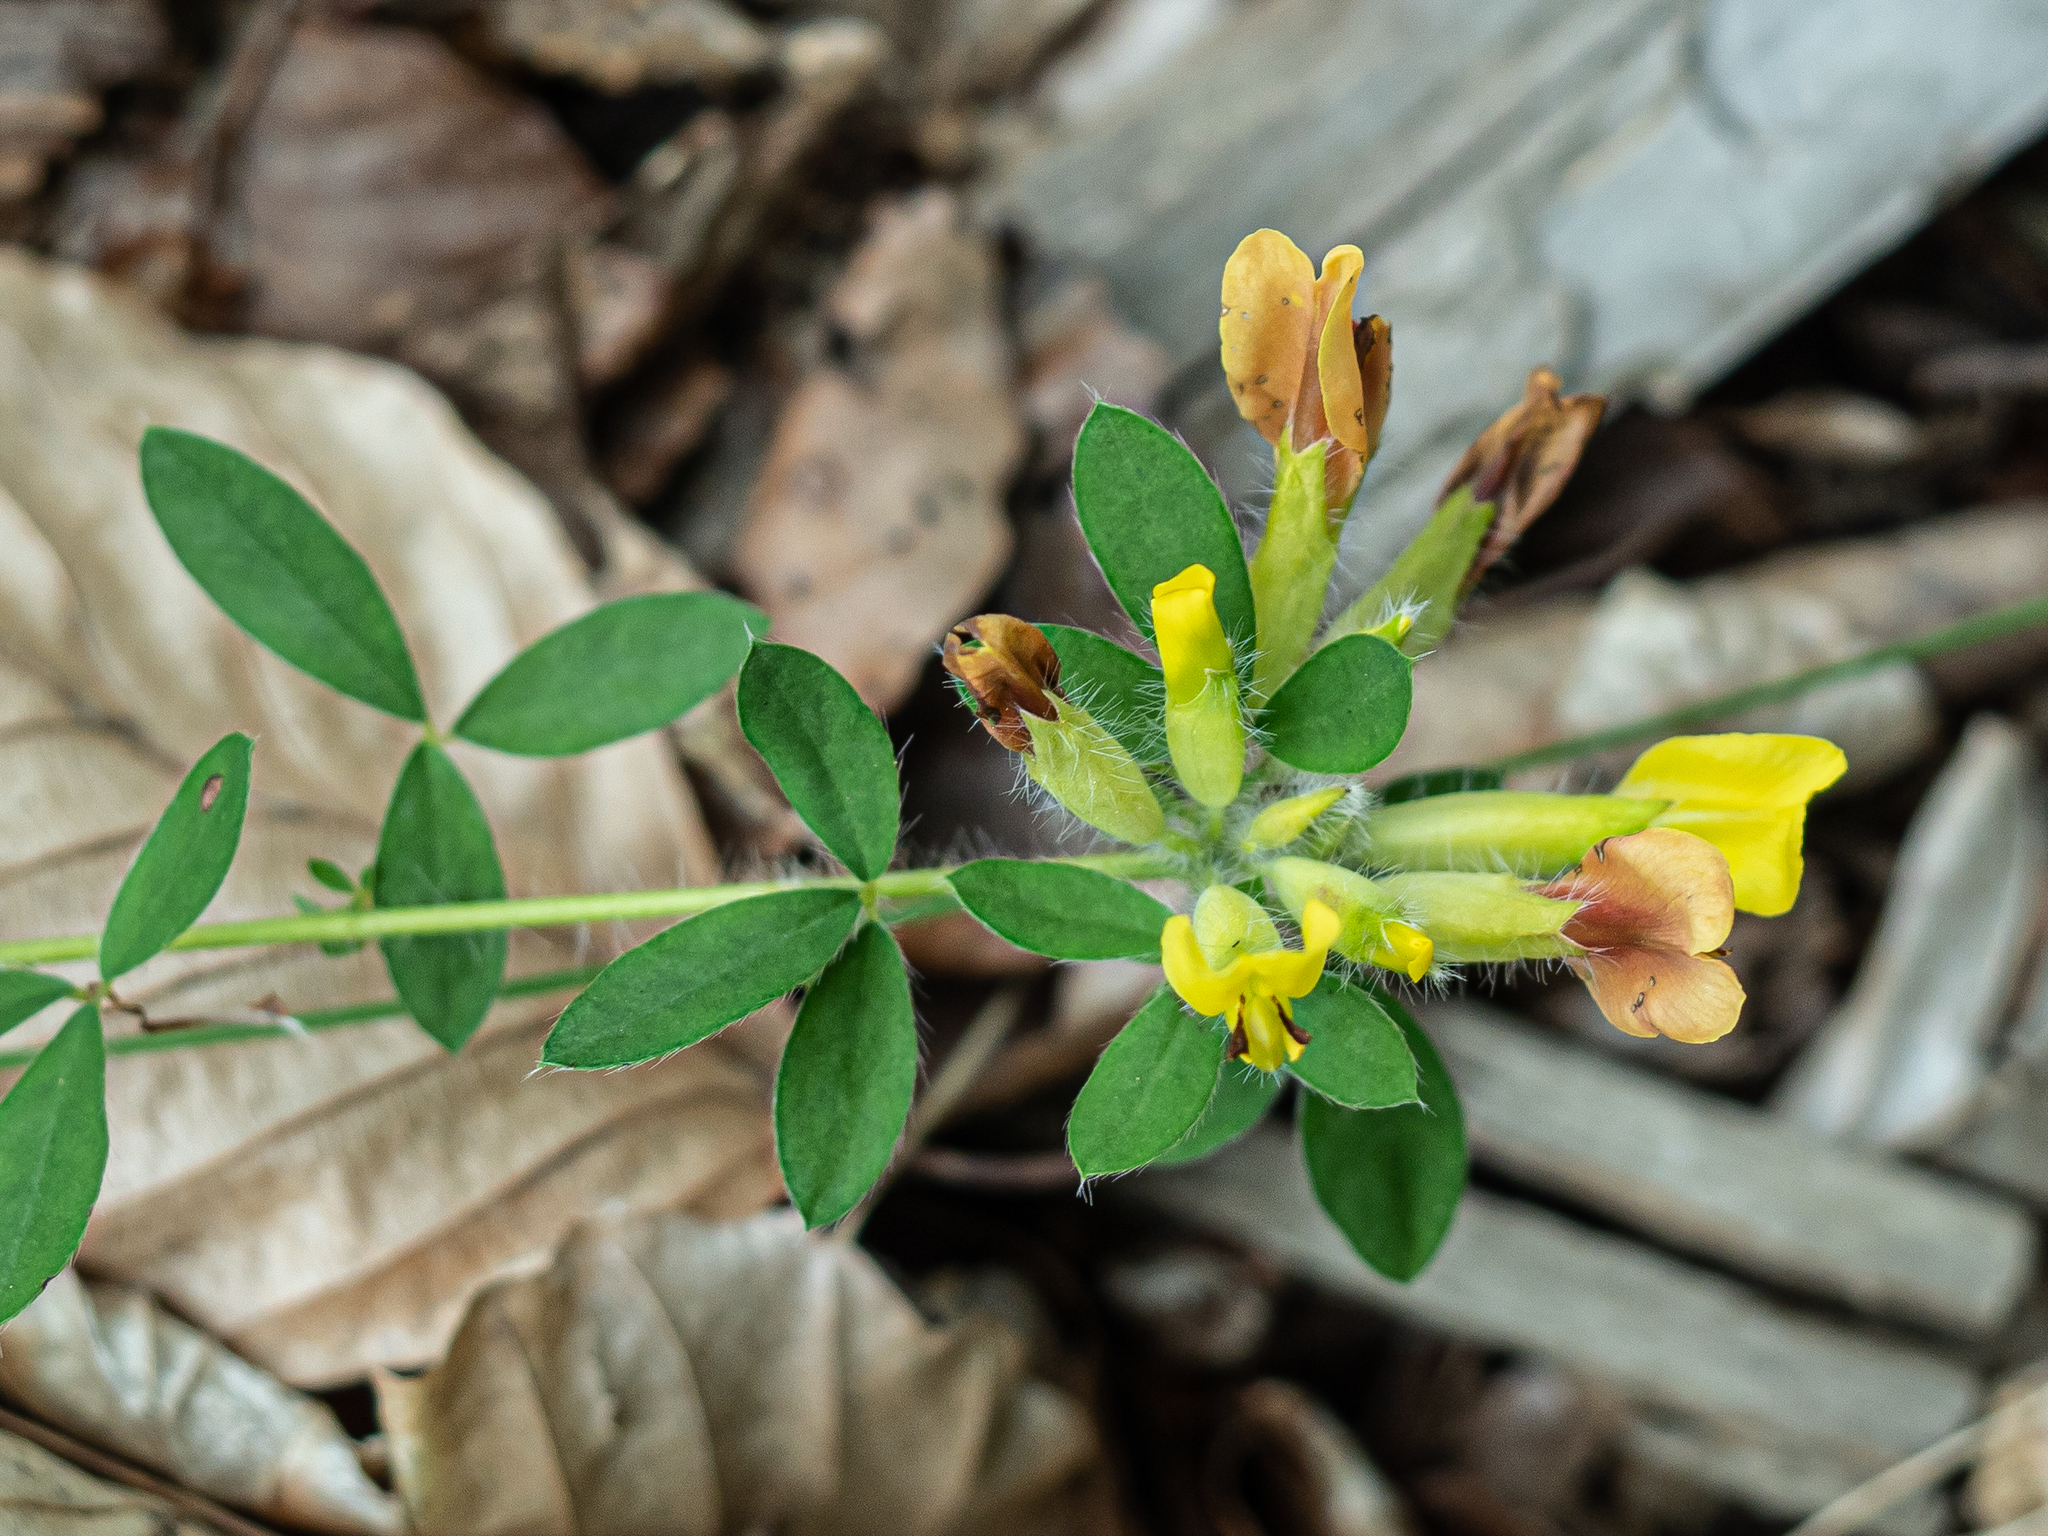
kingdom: Plantae
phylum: Tracheophyta
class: Magnoliopsida
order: Fabales
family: Fabaceae
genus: Chamaecytisus
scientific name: Chamaecytisus hirsutus
